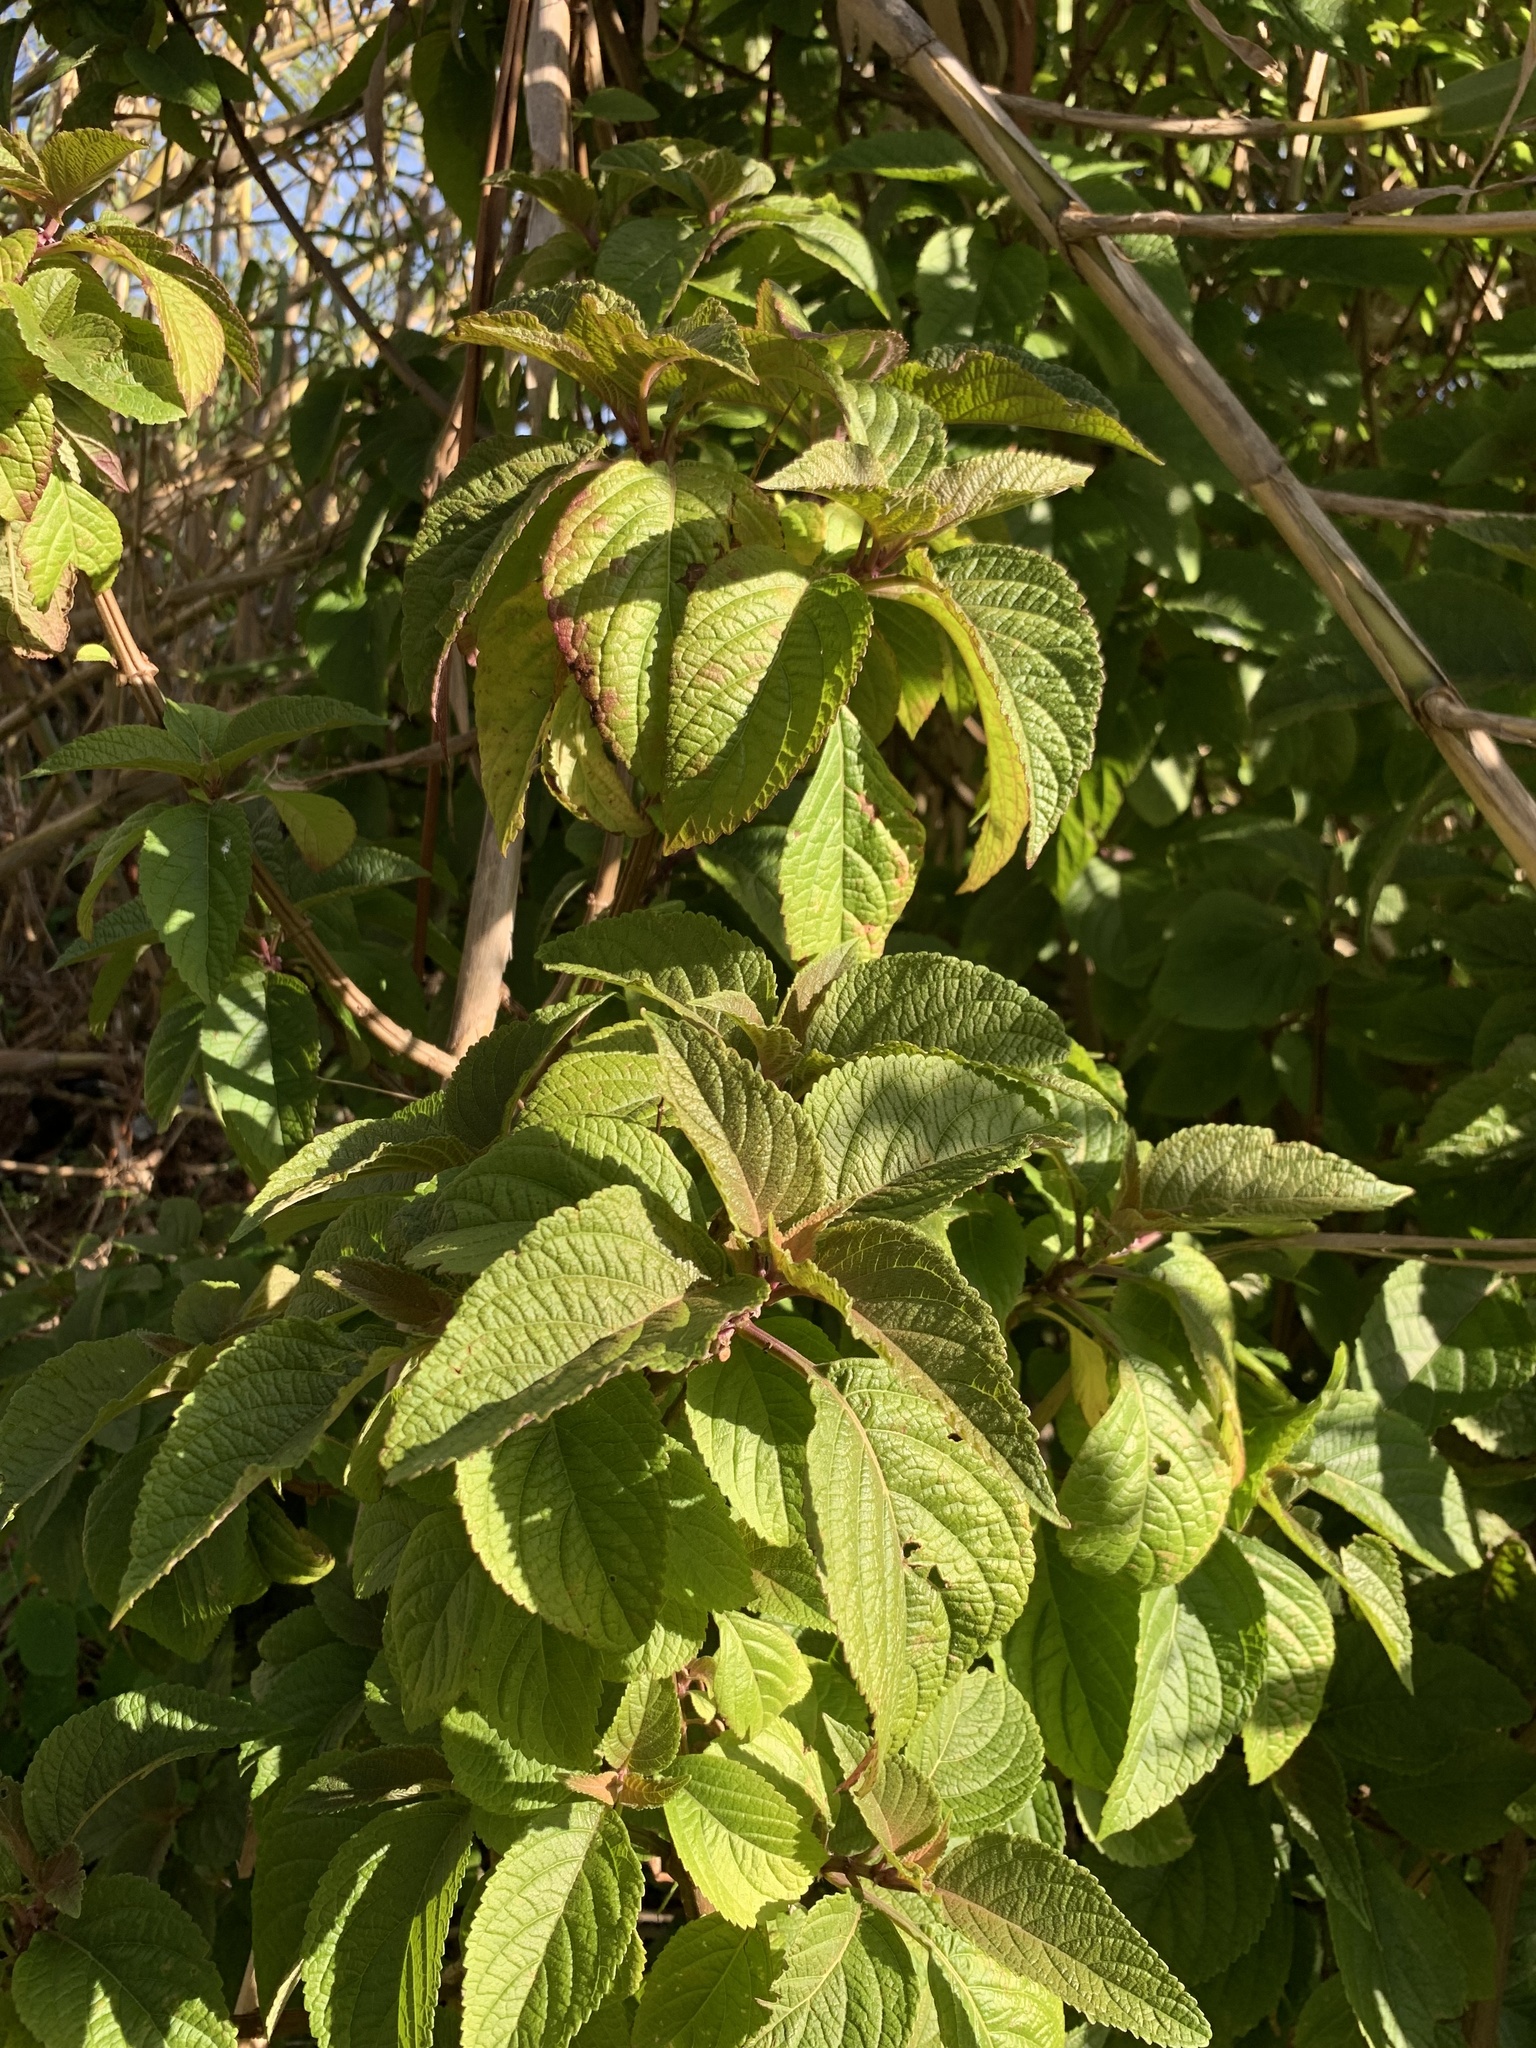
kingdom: Plantae
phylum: Tracheophyta
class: Magnoliopsida
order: Lamiales
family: Lamiaceae
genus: Plectranthus
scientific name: Plectranthus ecklonii
